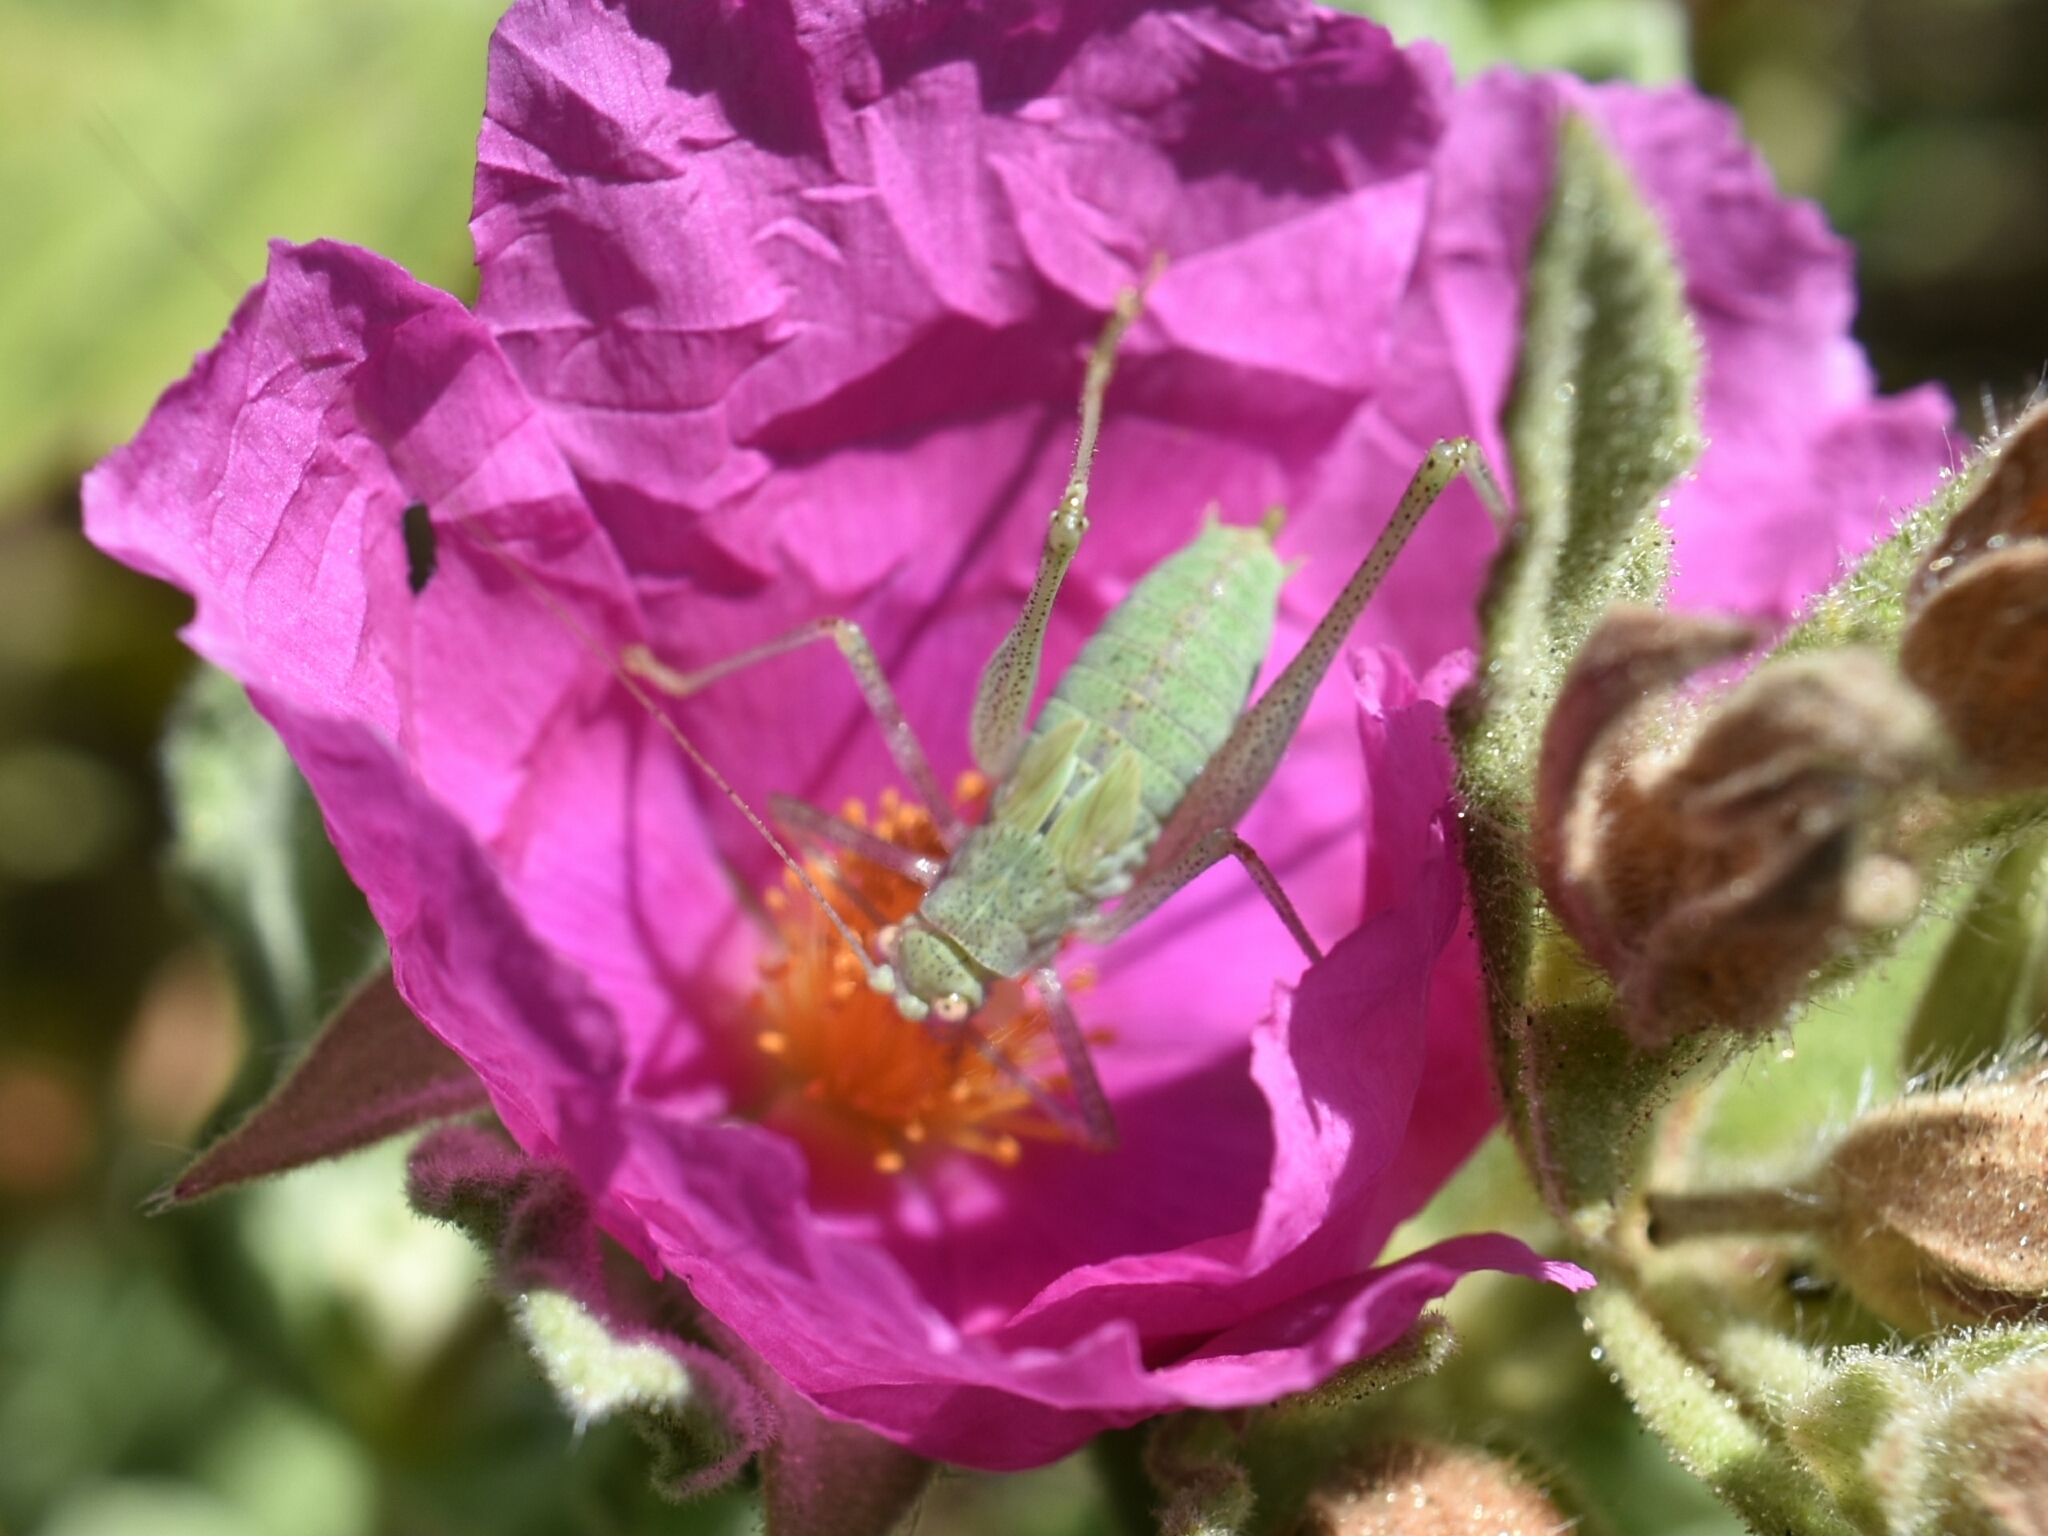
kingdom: Animalia
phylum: Arthropoda
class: Insecta
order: Orthoptera
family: Tettigoniidae
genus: Phaneroptera
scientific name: Phaneroptera nana
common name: Southern sickle bush-cricket
